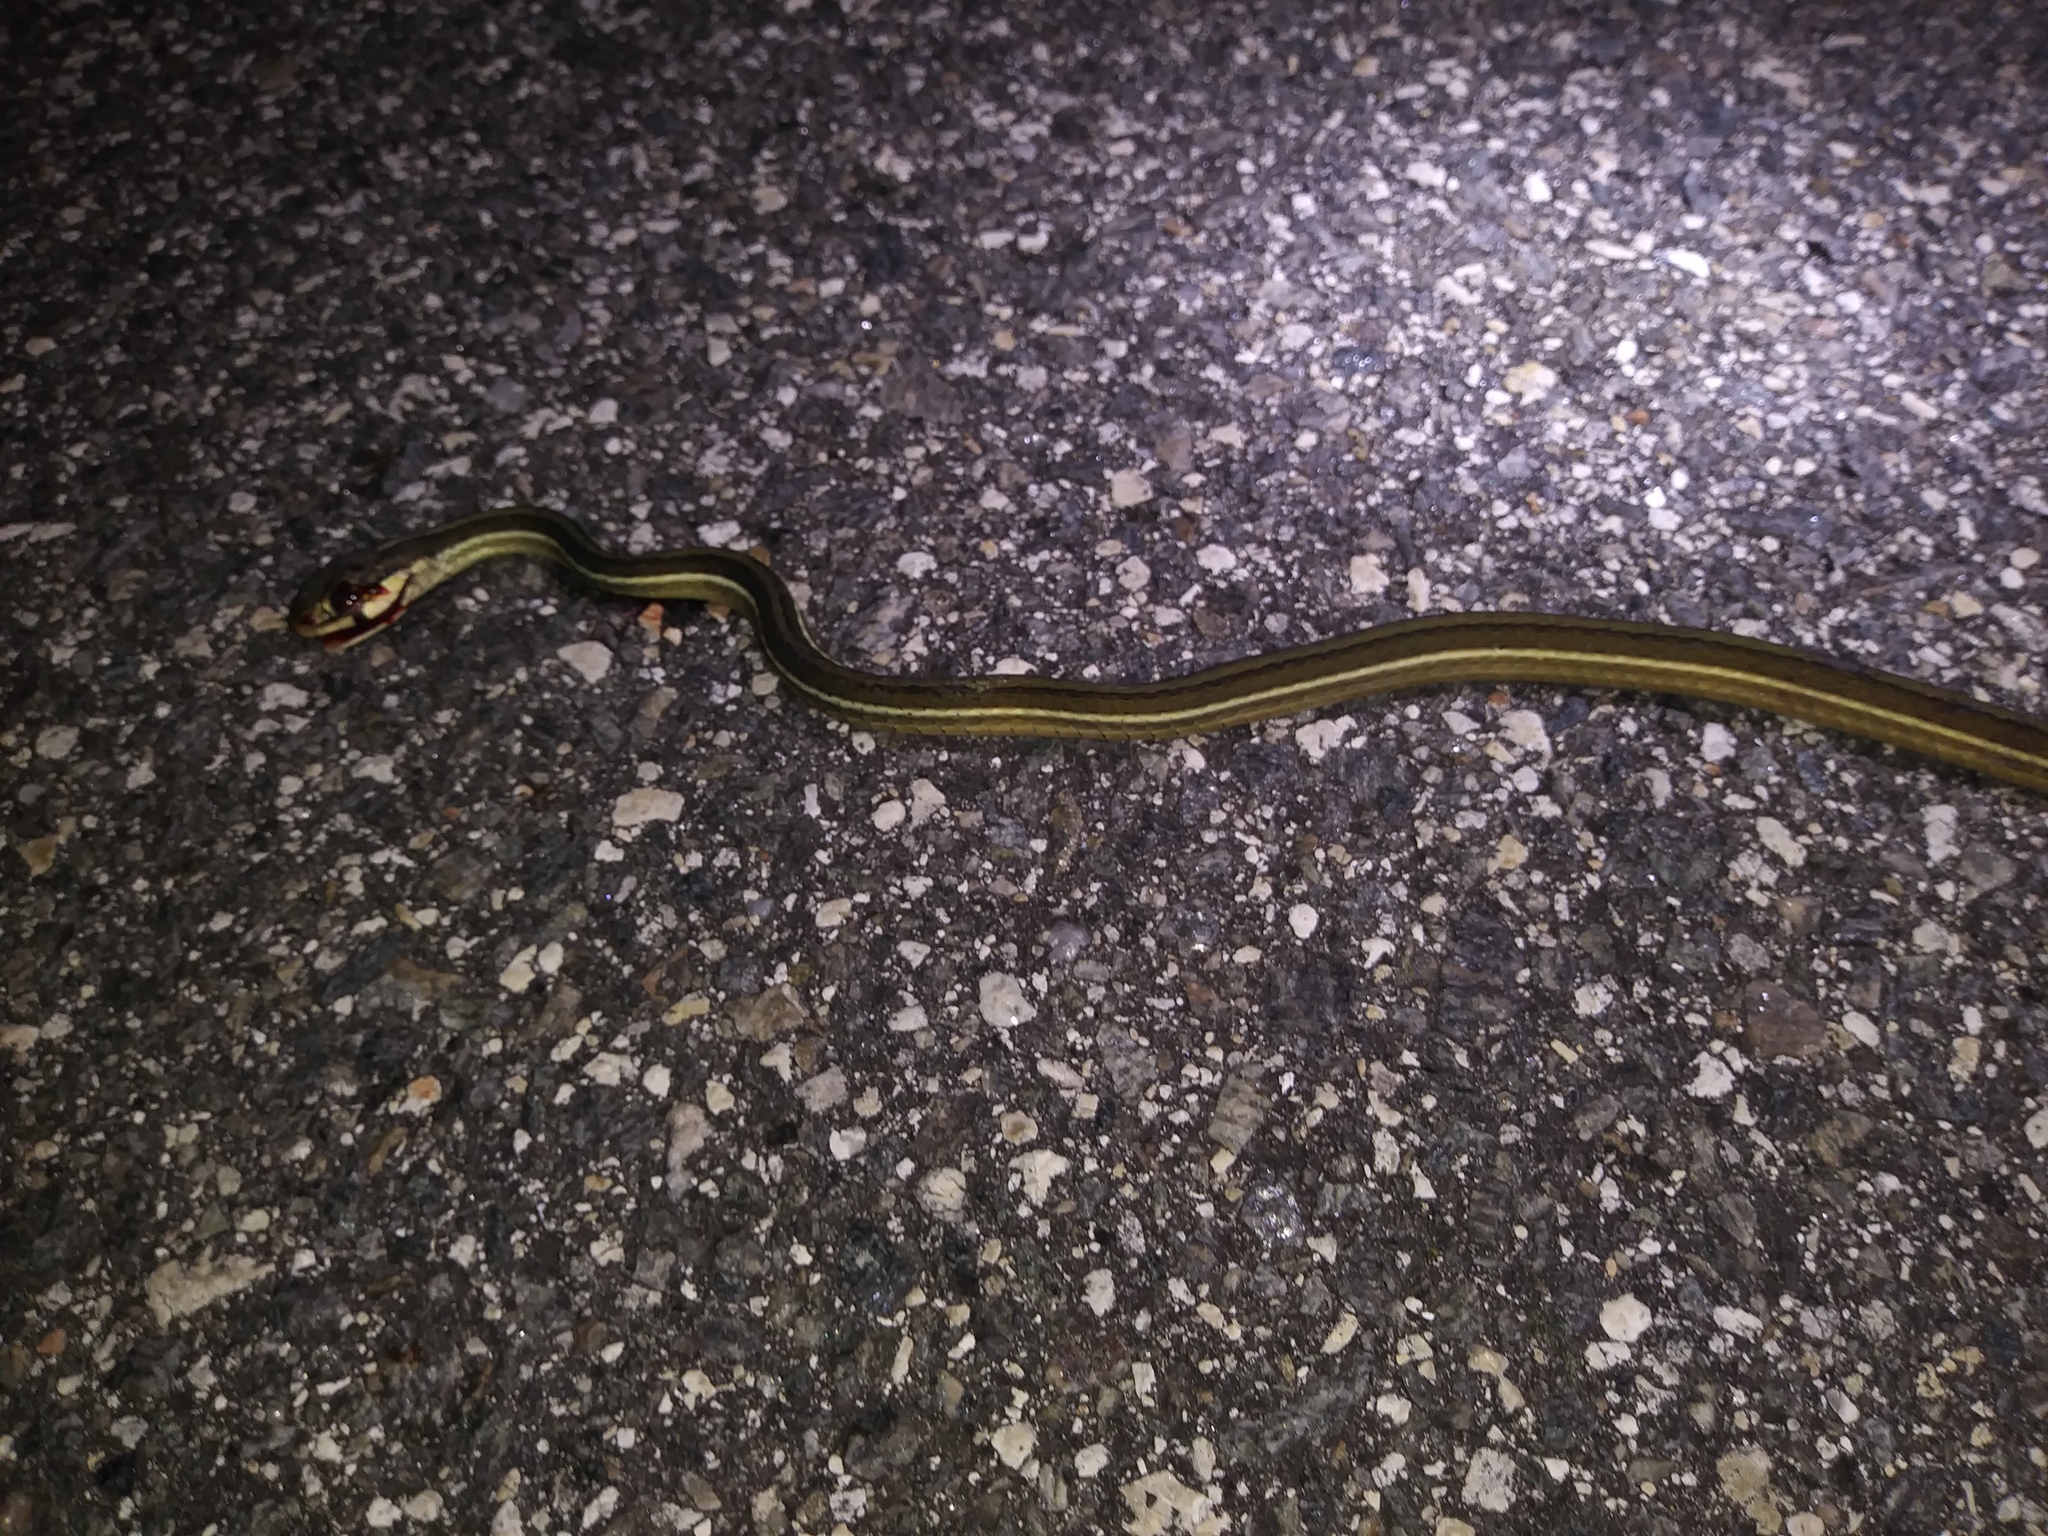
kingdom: Animalia
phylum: Chordata
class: Squamata
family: Colubridae
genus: Thamnophis
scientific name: Thamnophis saurita
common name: Eastern ribbonsnake
